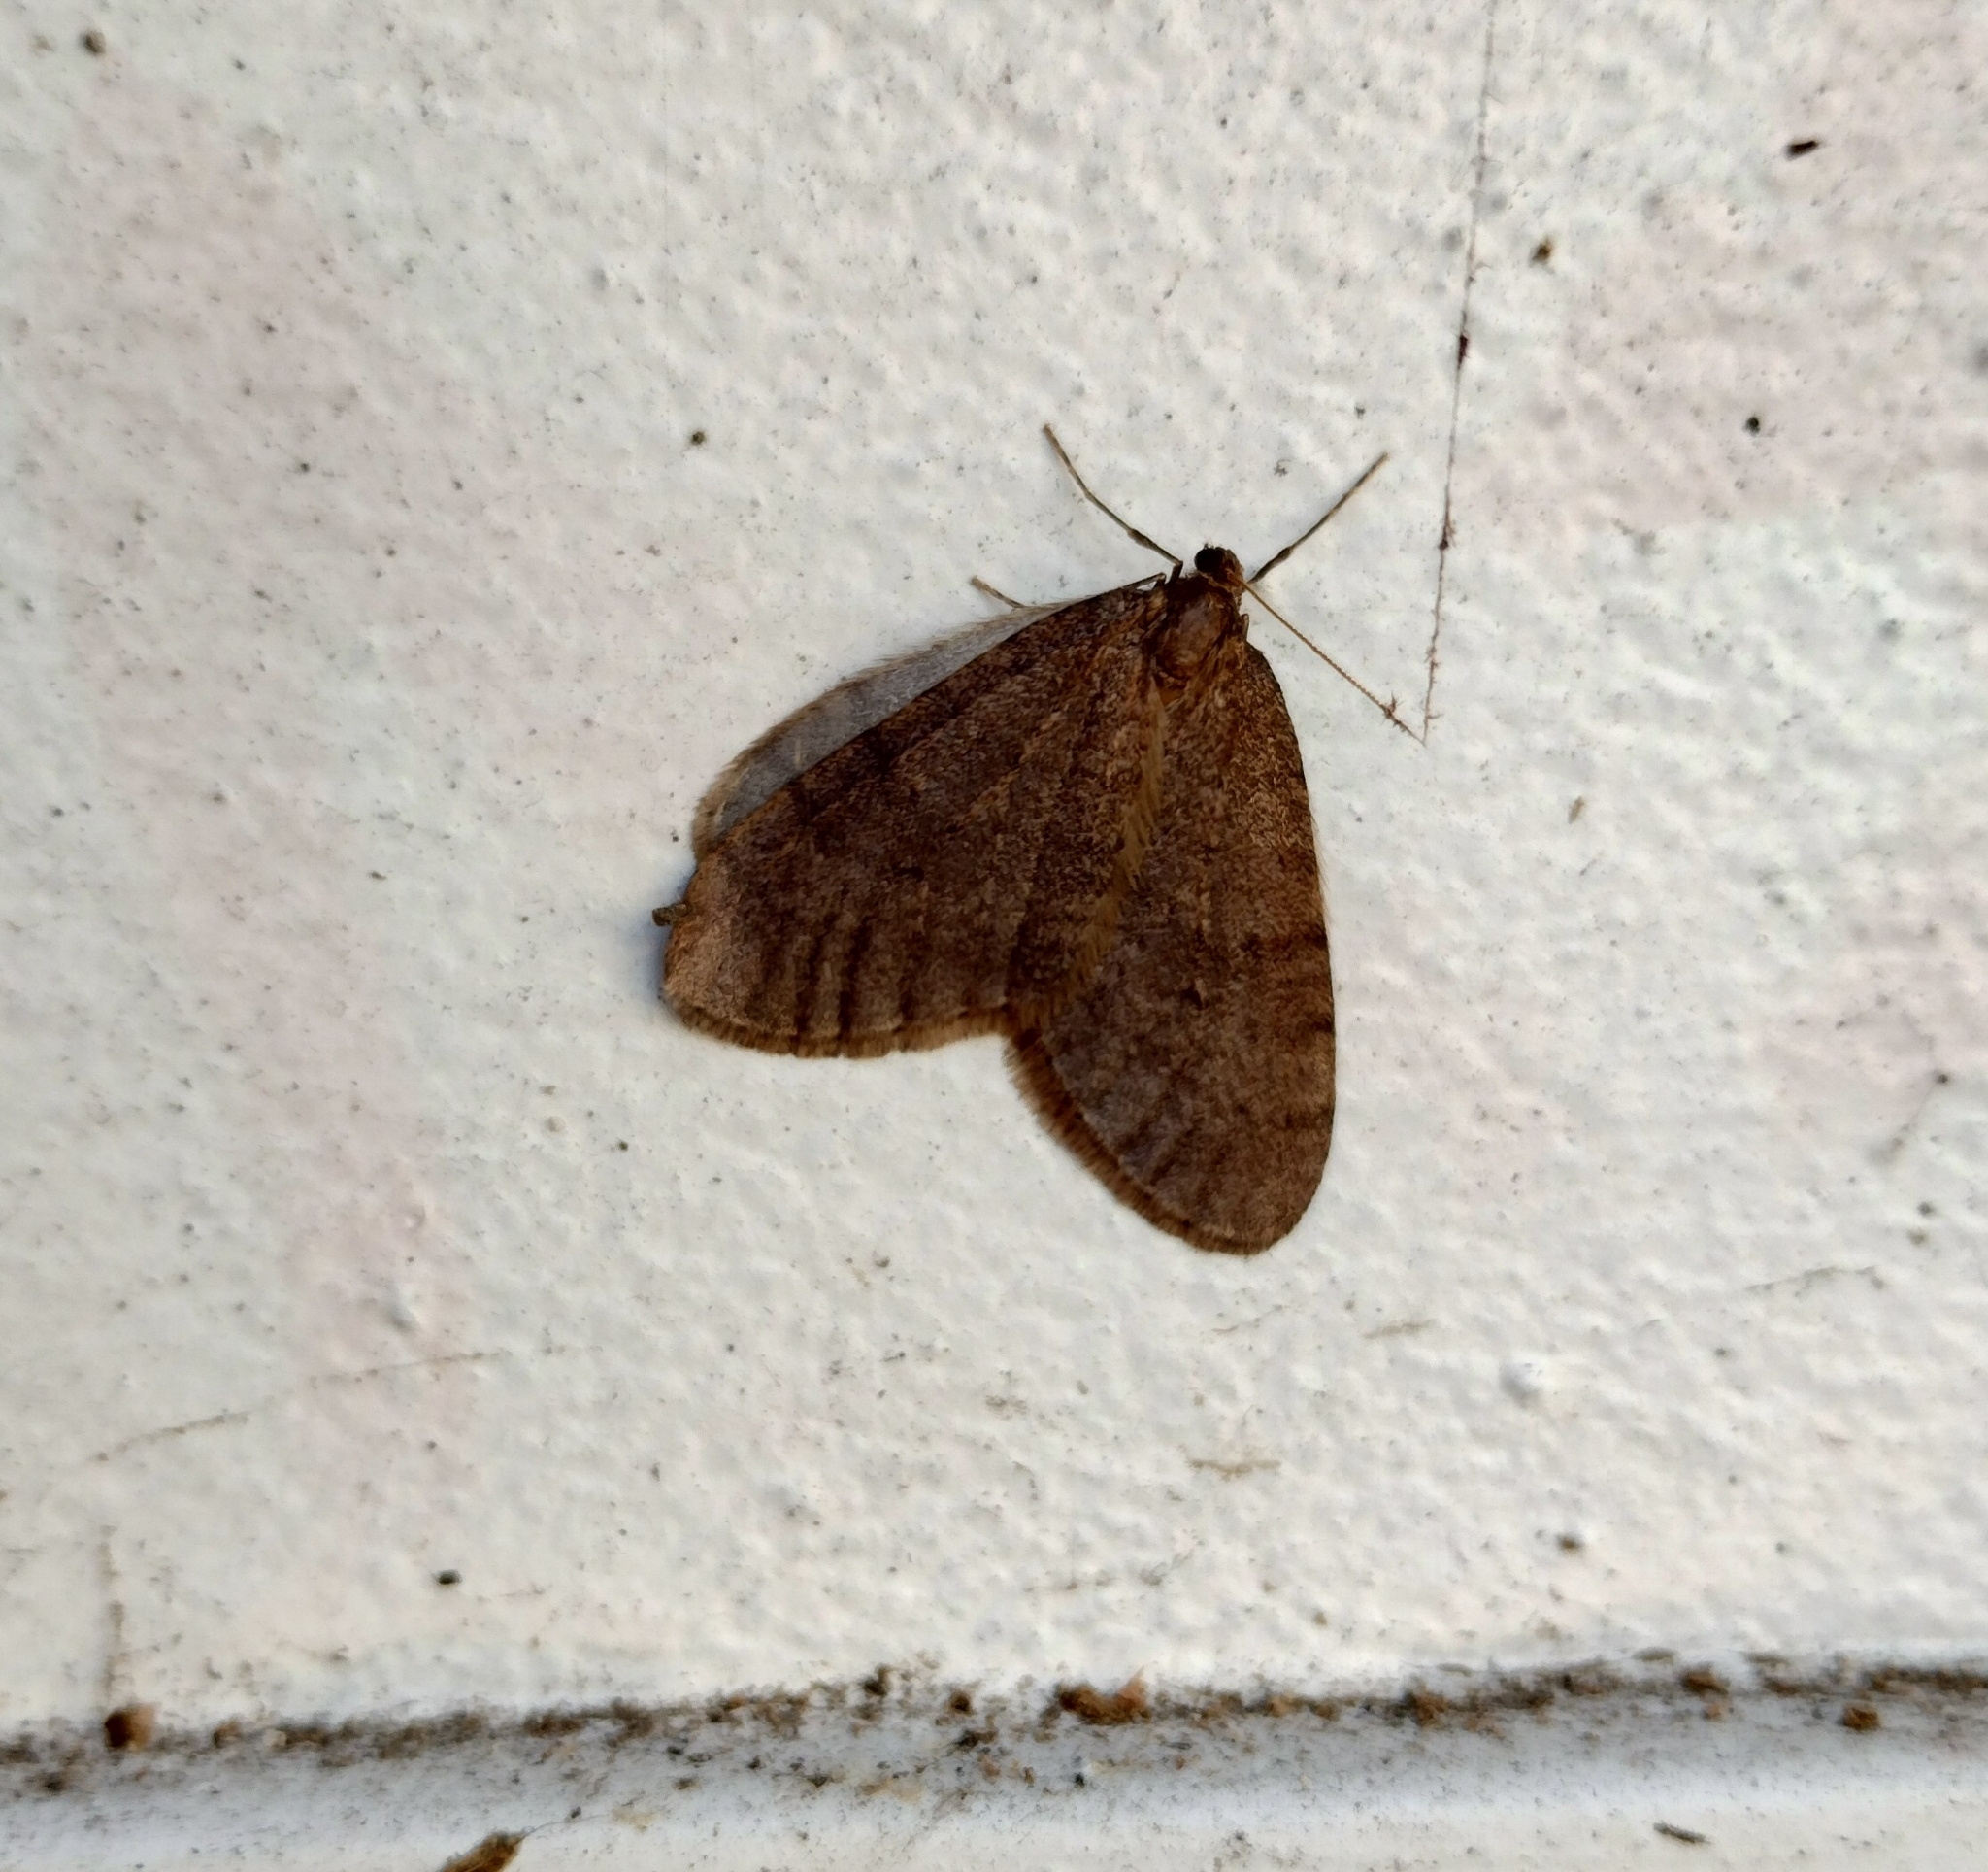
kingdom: Animalia
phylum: Arthropoda
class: Insecta
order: Lepidoptera
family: Geometridae
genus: Operophtera
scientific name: Operophtera brumata
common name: Winter moth
